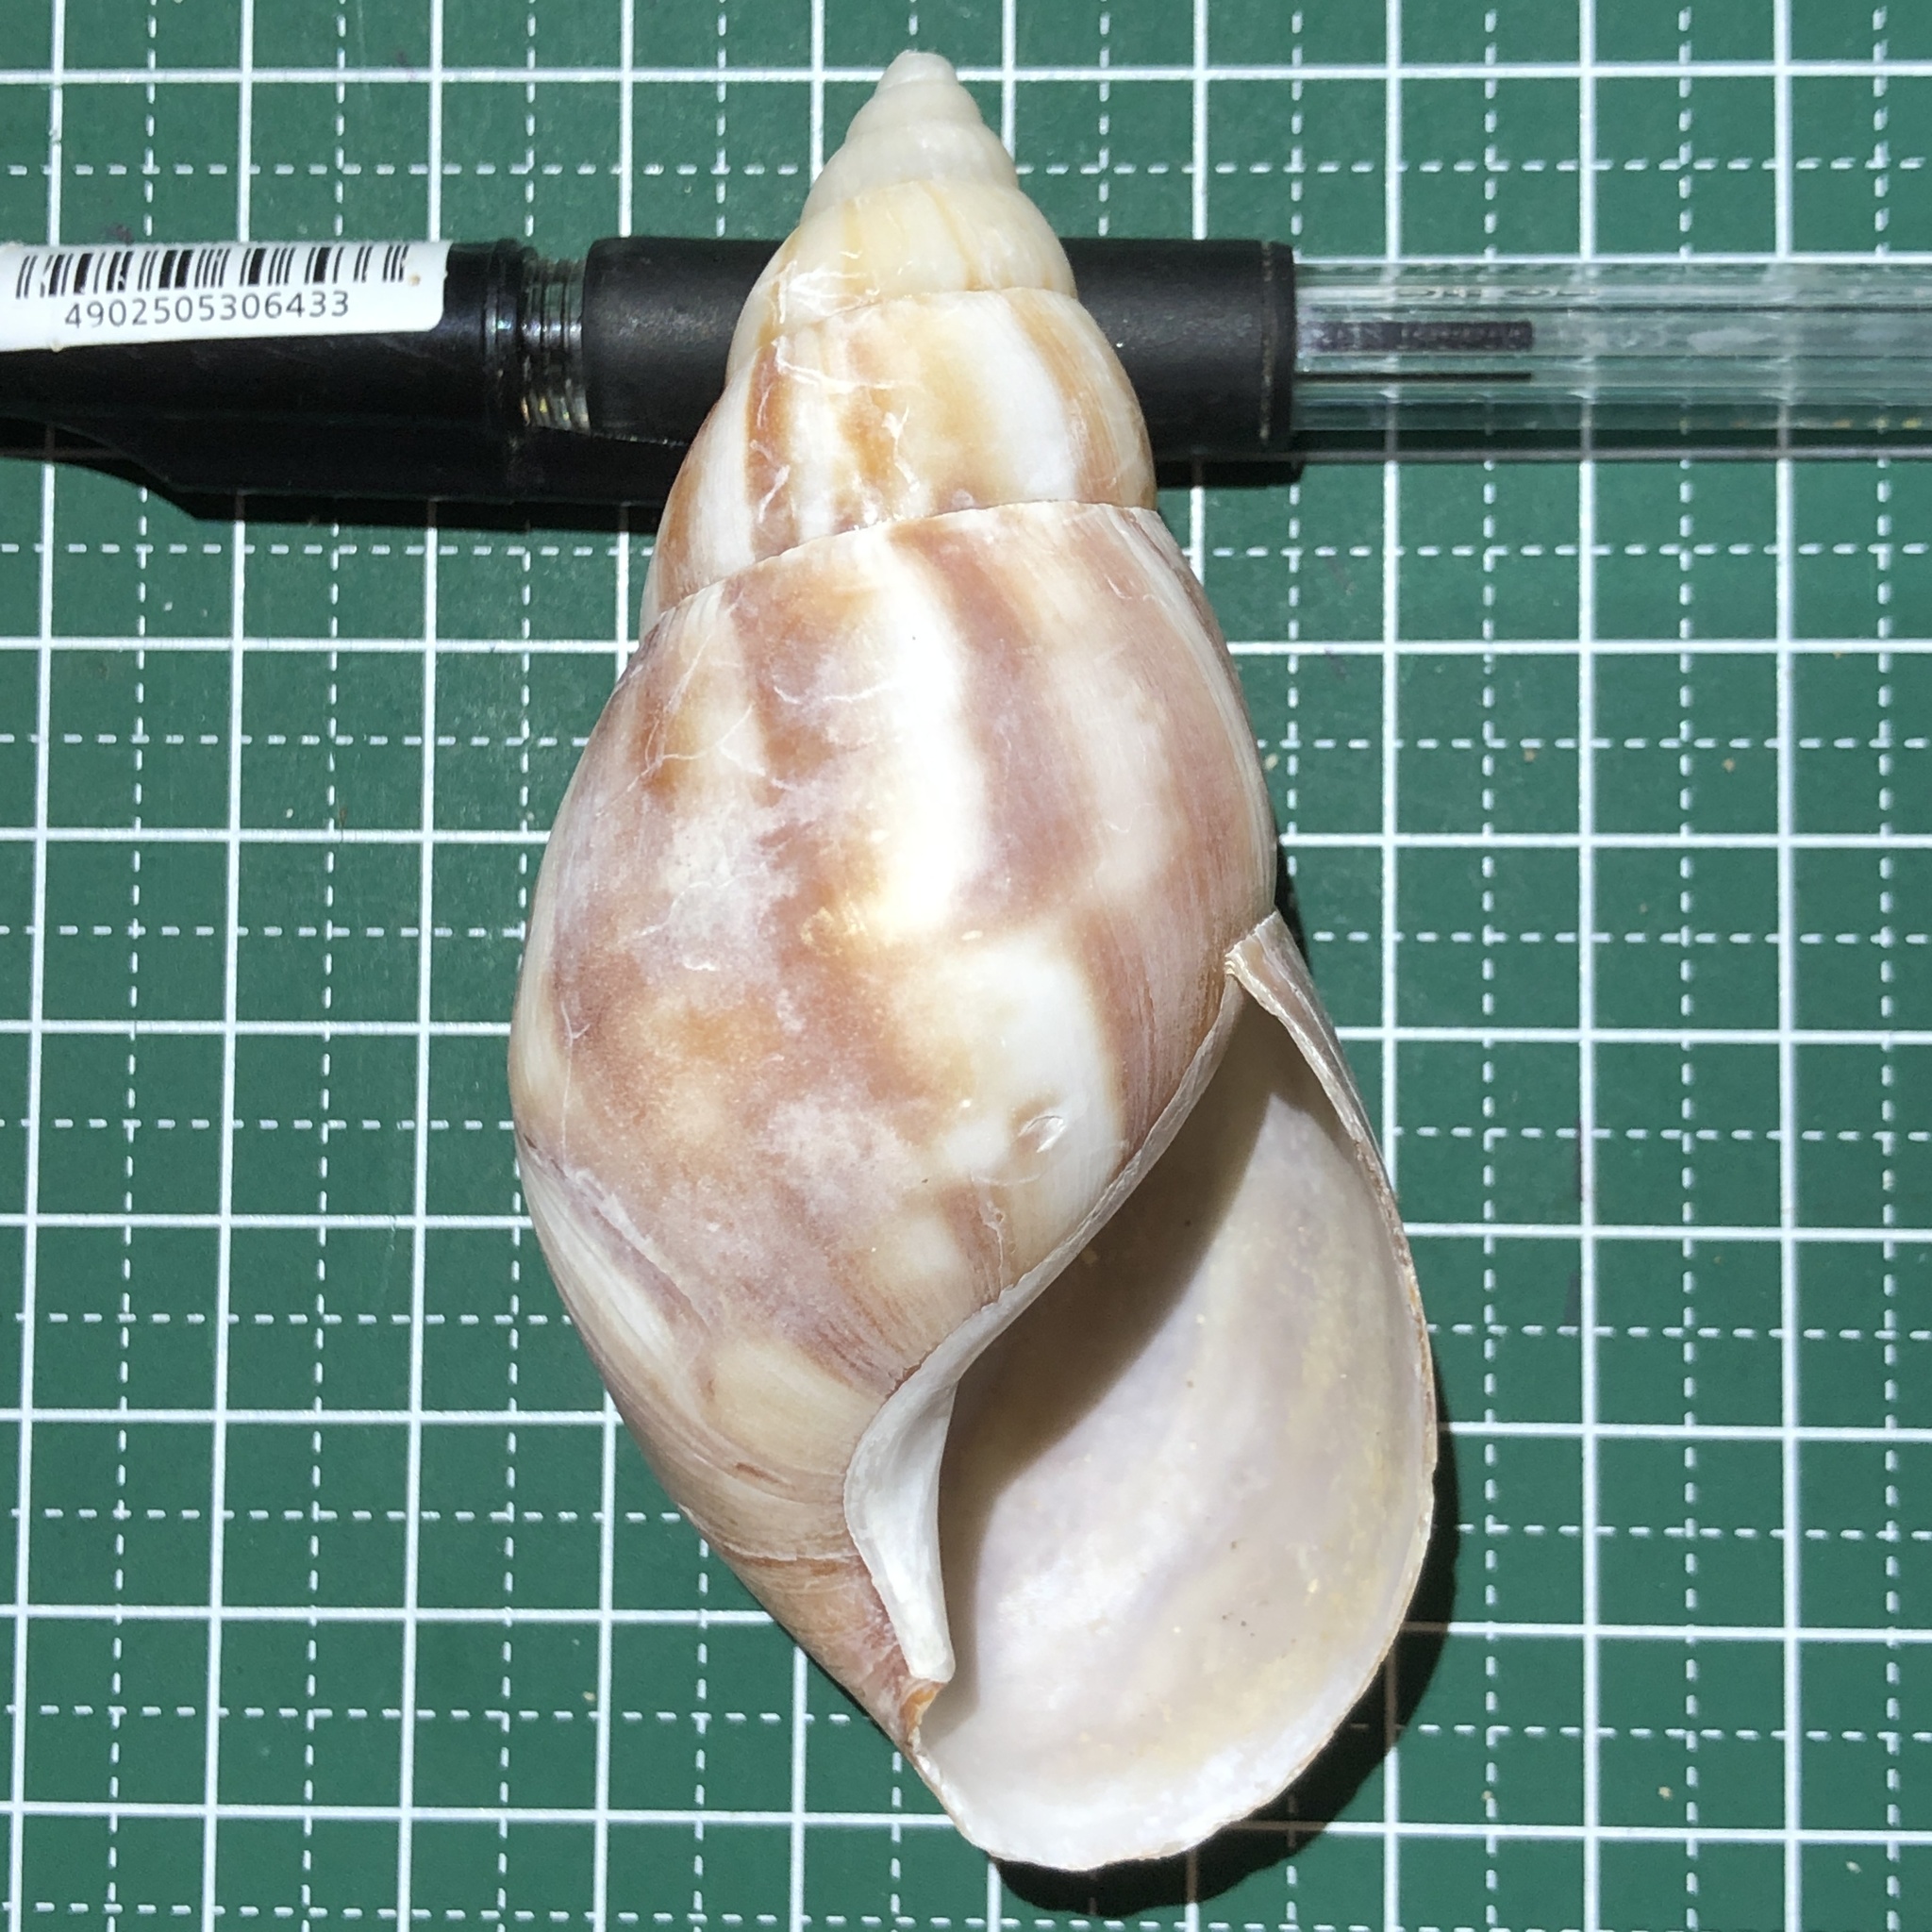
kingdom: Animalia
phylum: Mollusca
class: Gastropoda
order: Stylommatophora
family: Achatinidae
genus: Lissachatina
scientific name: Lissachatina fulica
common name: Giant african snail
